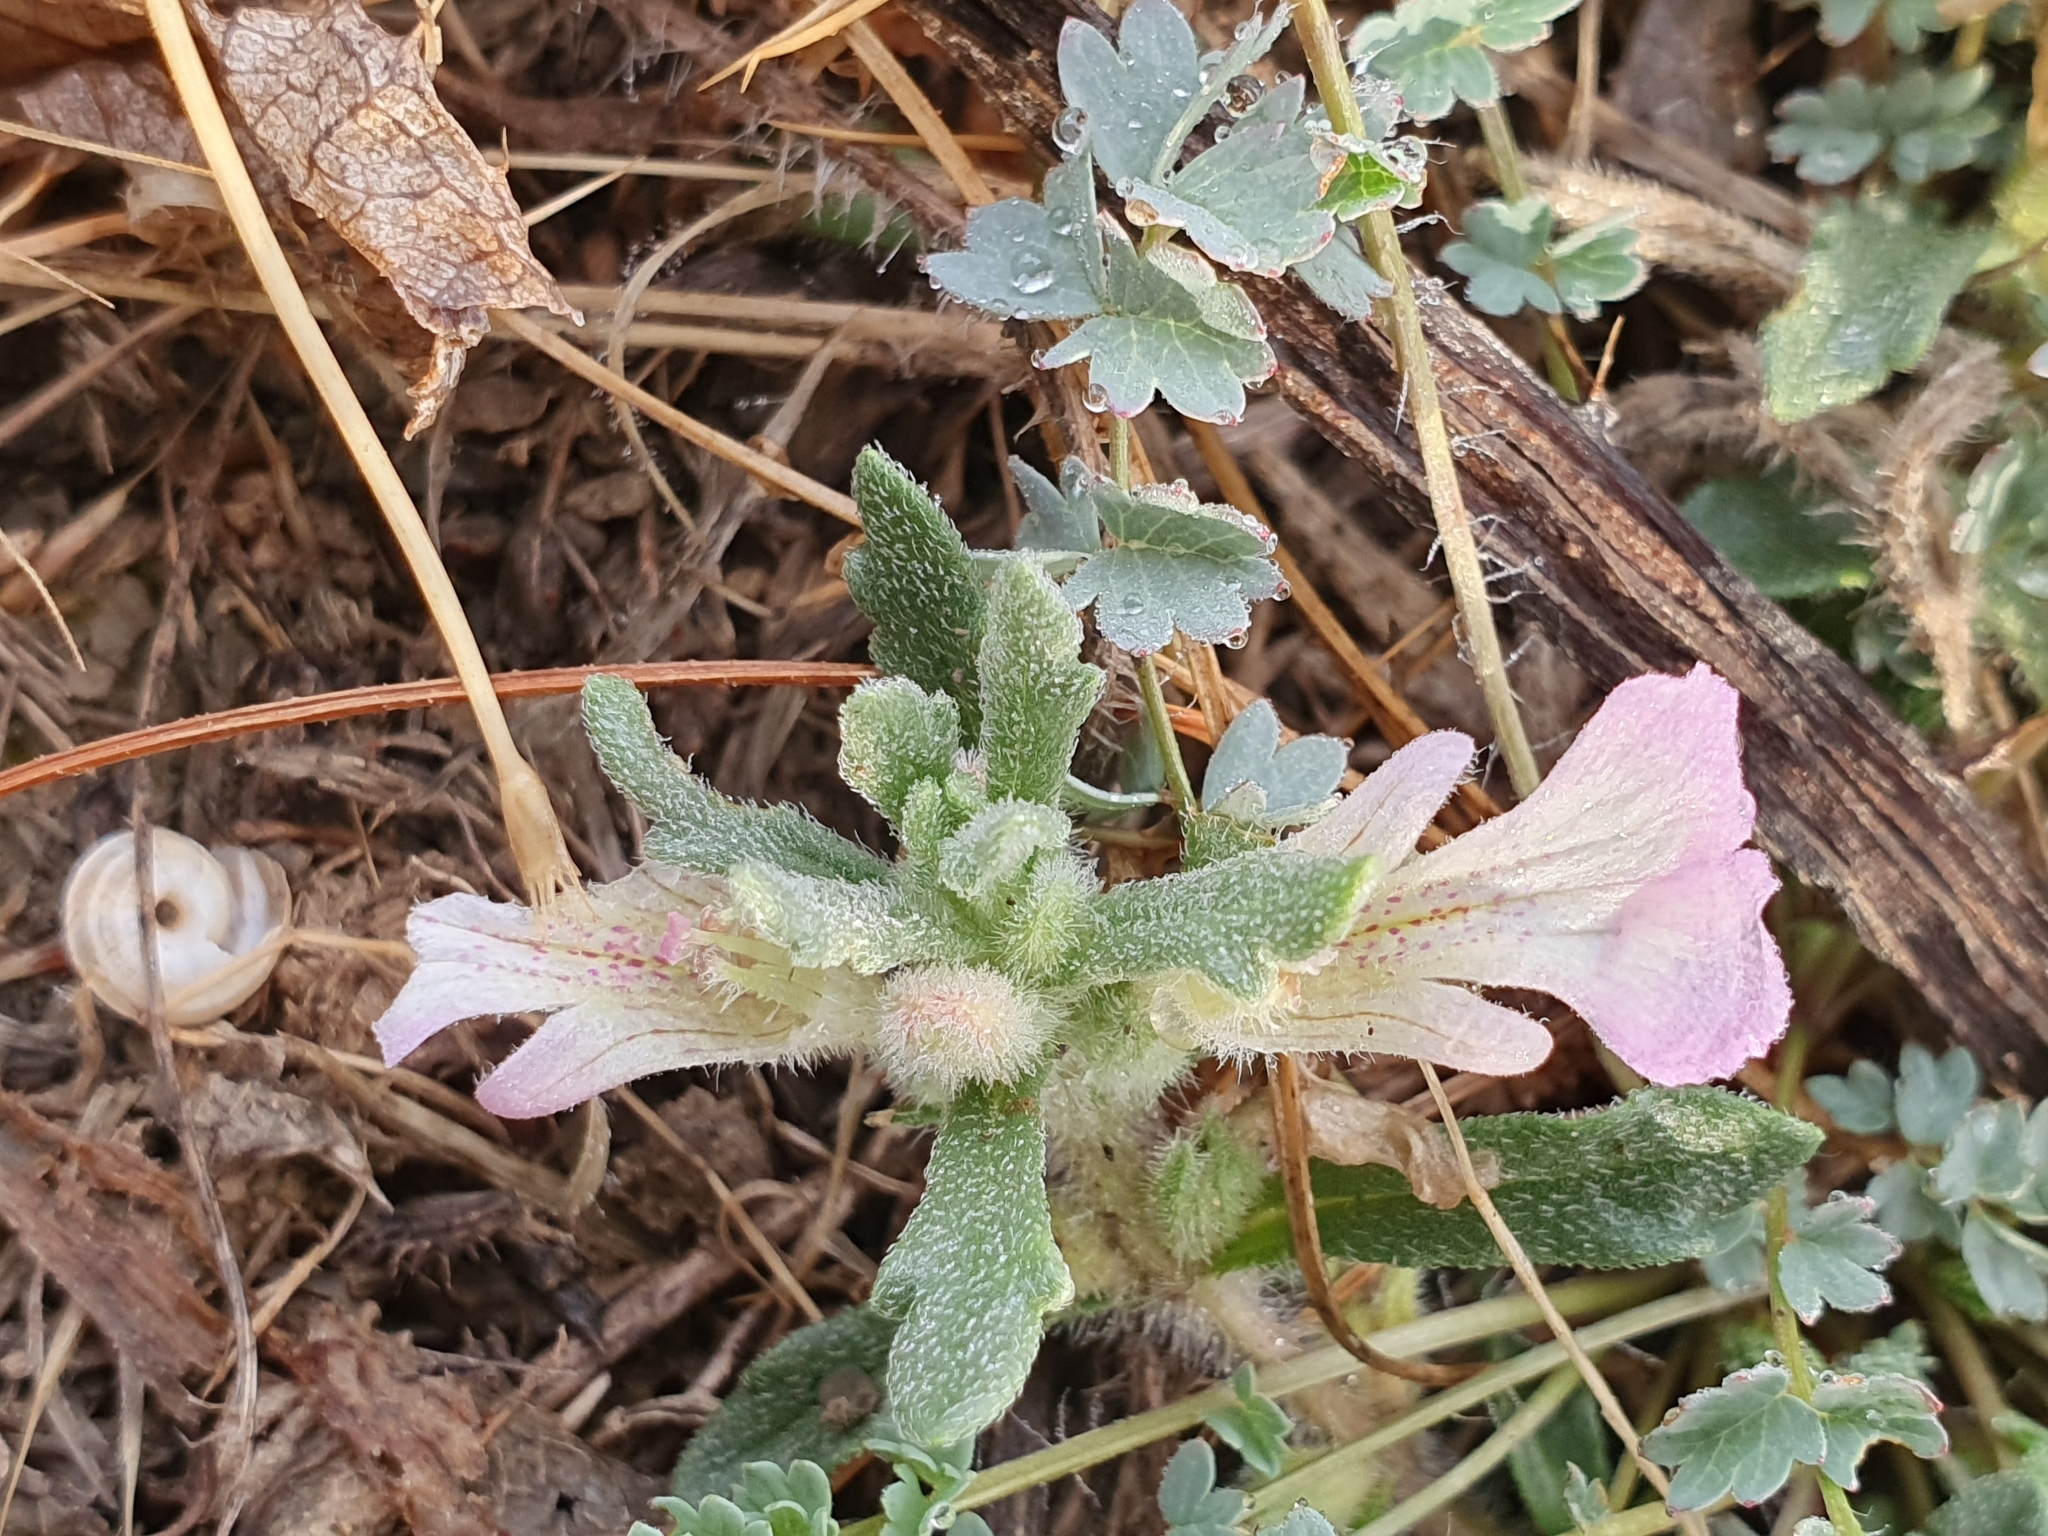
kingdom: Plantae
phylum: Tracheophyta
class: Magnoliopsida
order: Lamiales
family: Lamiaceae
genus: Ajuga
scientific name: Ajuga iva
